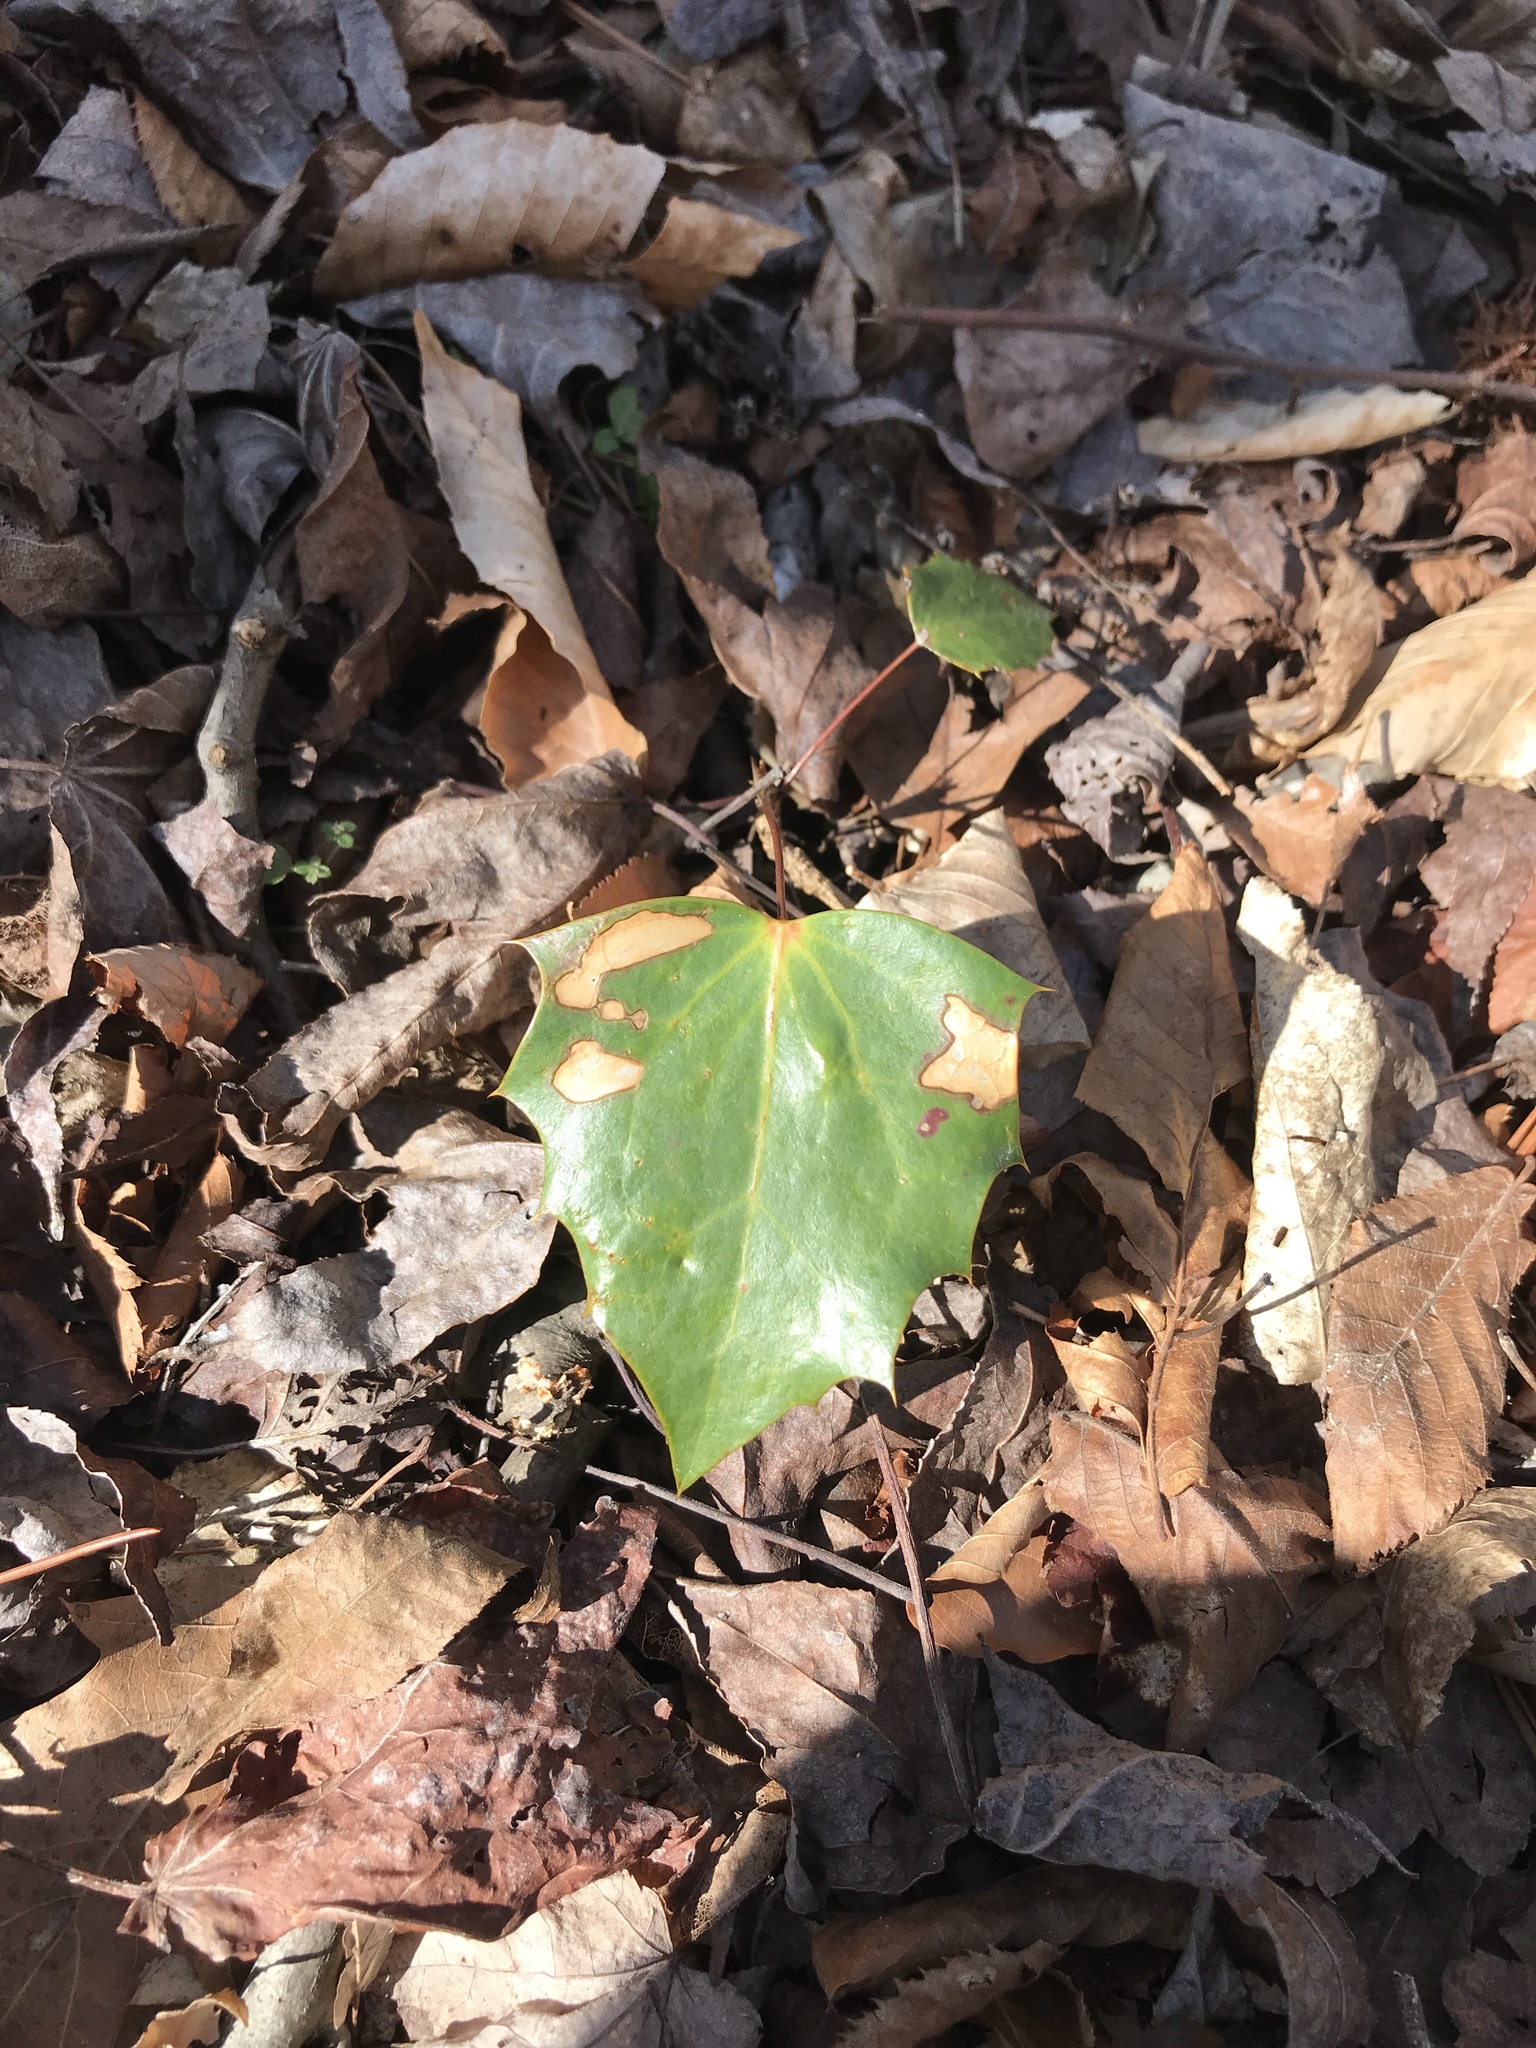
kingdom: Plantae
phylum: Tracheophyta
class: Magnoliopsida
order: Ranunculales
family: Berberidaceae
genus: Mahonia
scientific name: Mahonia bealei
